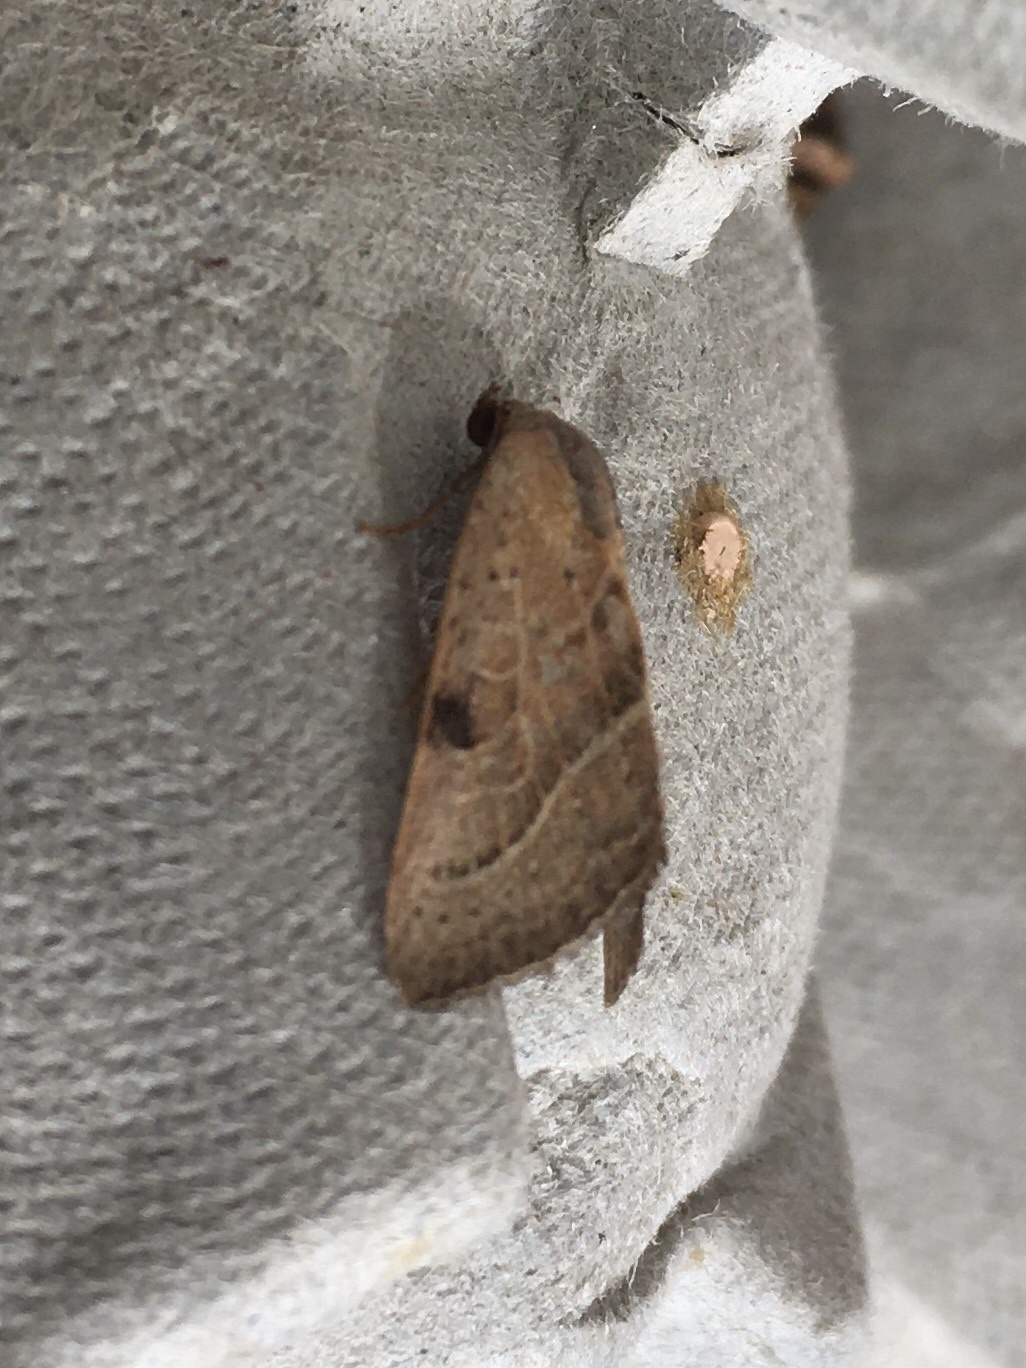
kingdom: Animalia
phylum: Arthropoda
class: Insecta
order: Lepidoptera
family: Noctuidae
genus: Galgula
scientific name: Galgula partita
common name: Wedgeling
